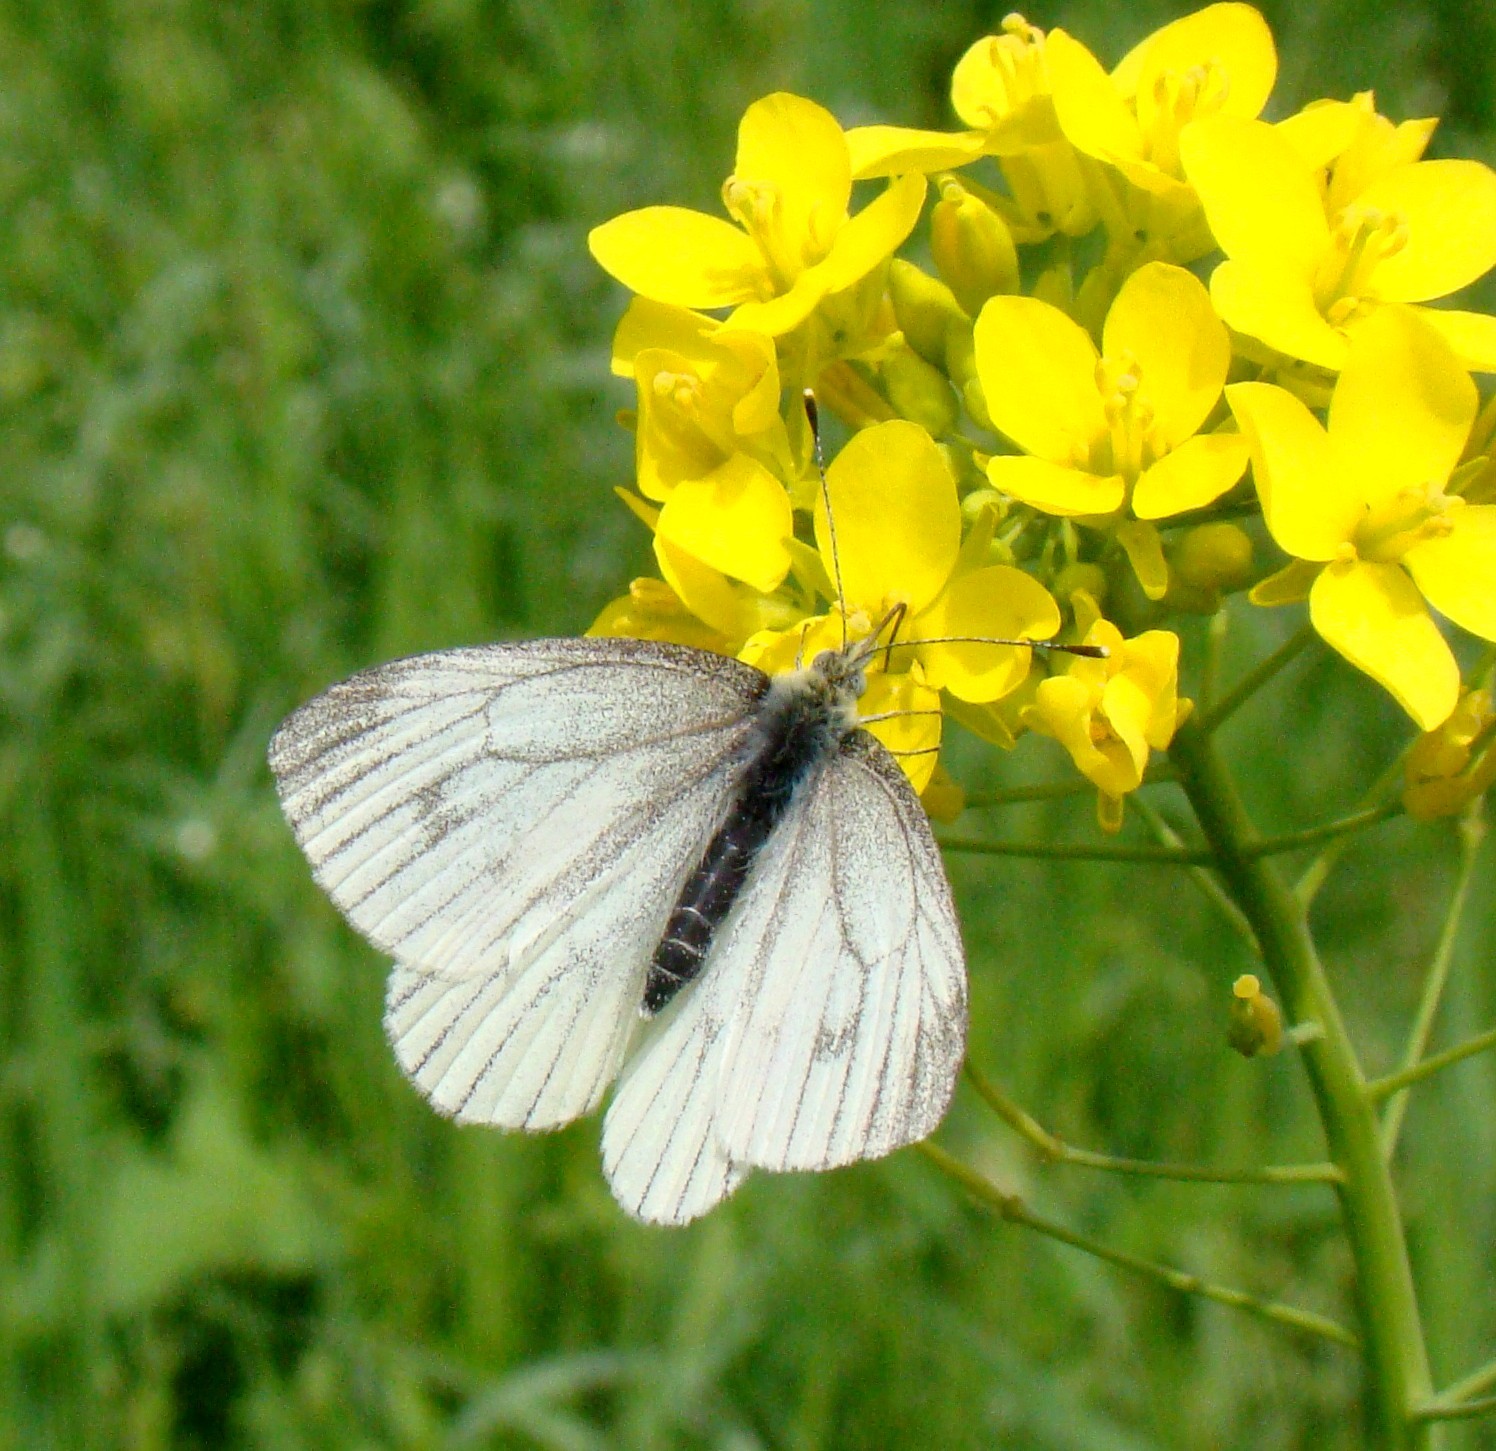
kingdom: Animalia
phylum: Arthropoda
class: Insecta
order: Lepidoptera
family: Pieridae
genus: Pieris
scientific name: Pieris napi
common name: Green-veined white
